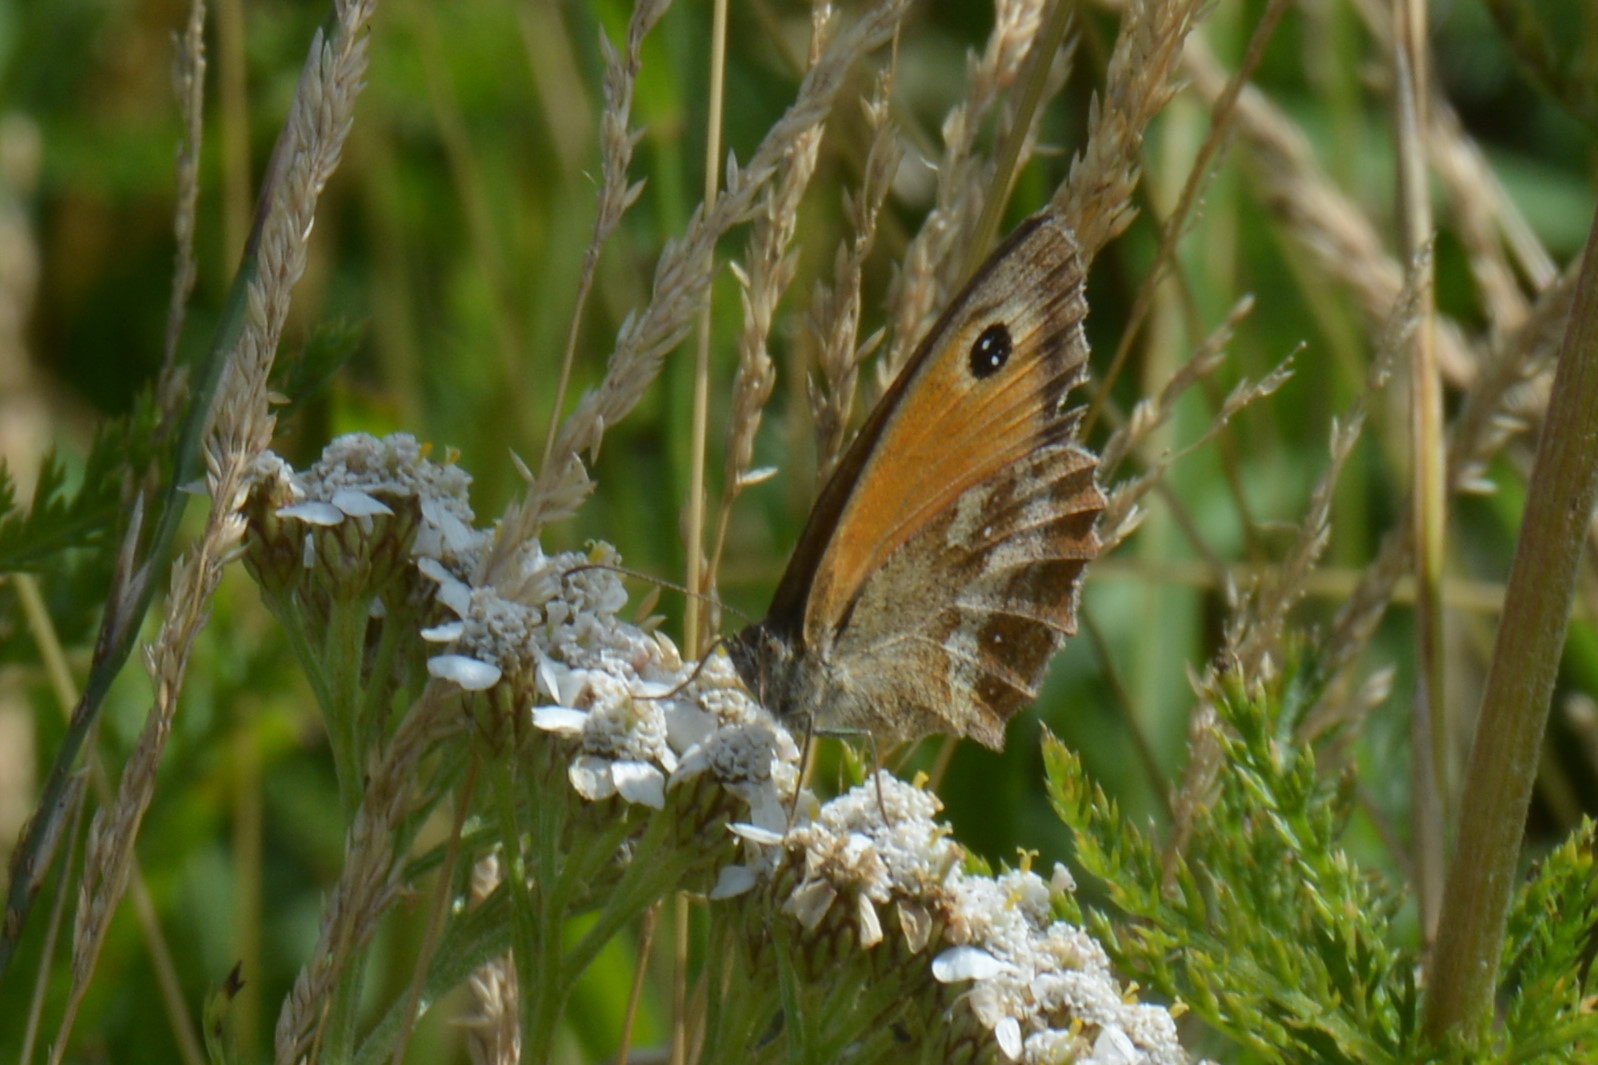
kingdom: Animalia
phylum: Arthropoda
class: Insecta
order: Lepidoptera
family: Nymphalidae
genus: Pyronia
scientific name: Pyronia tithonus
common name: Gatekeeper
